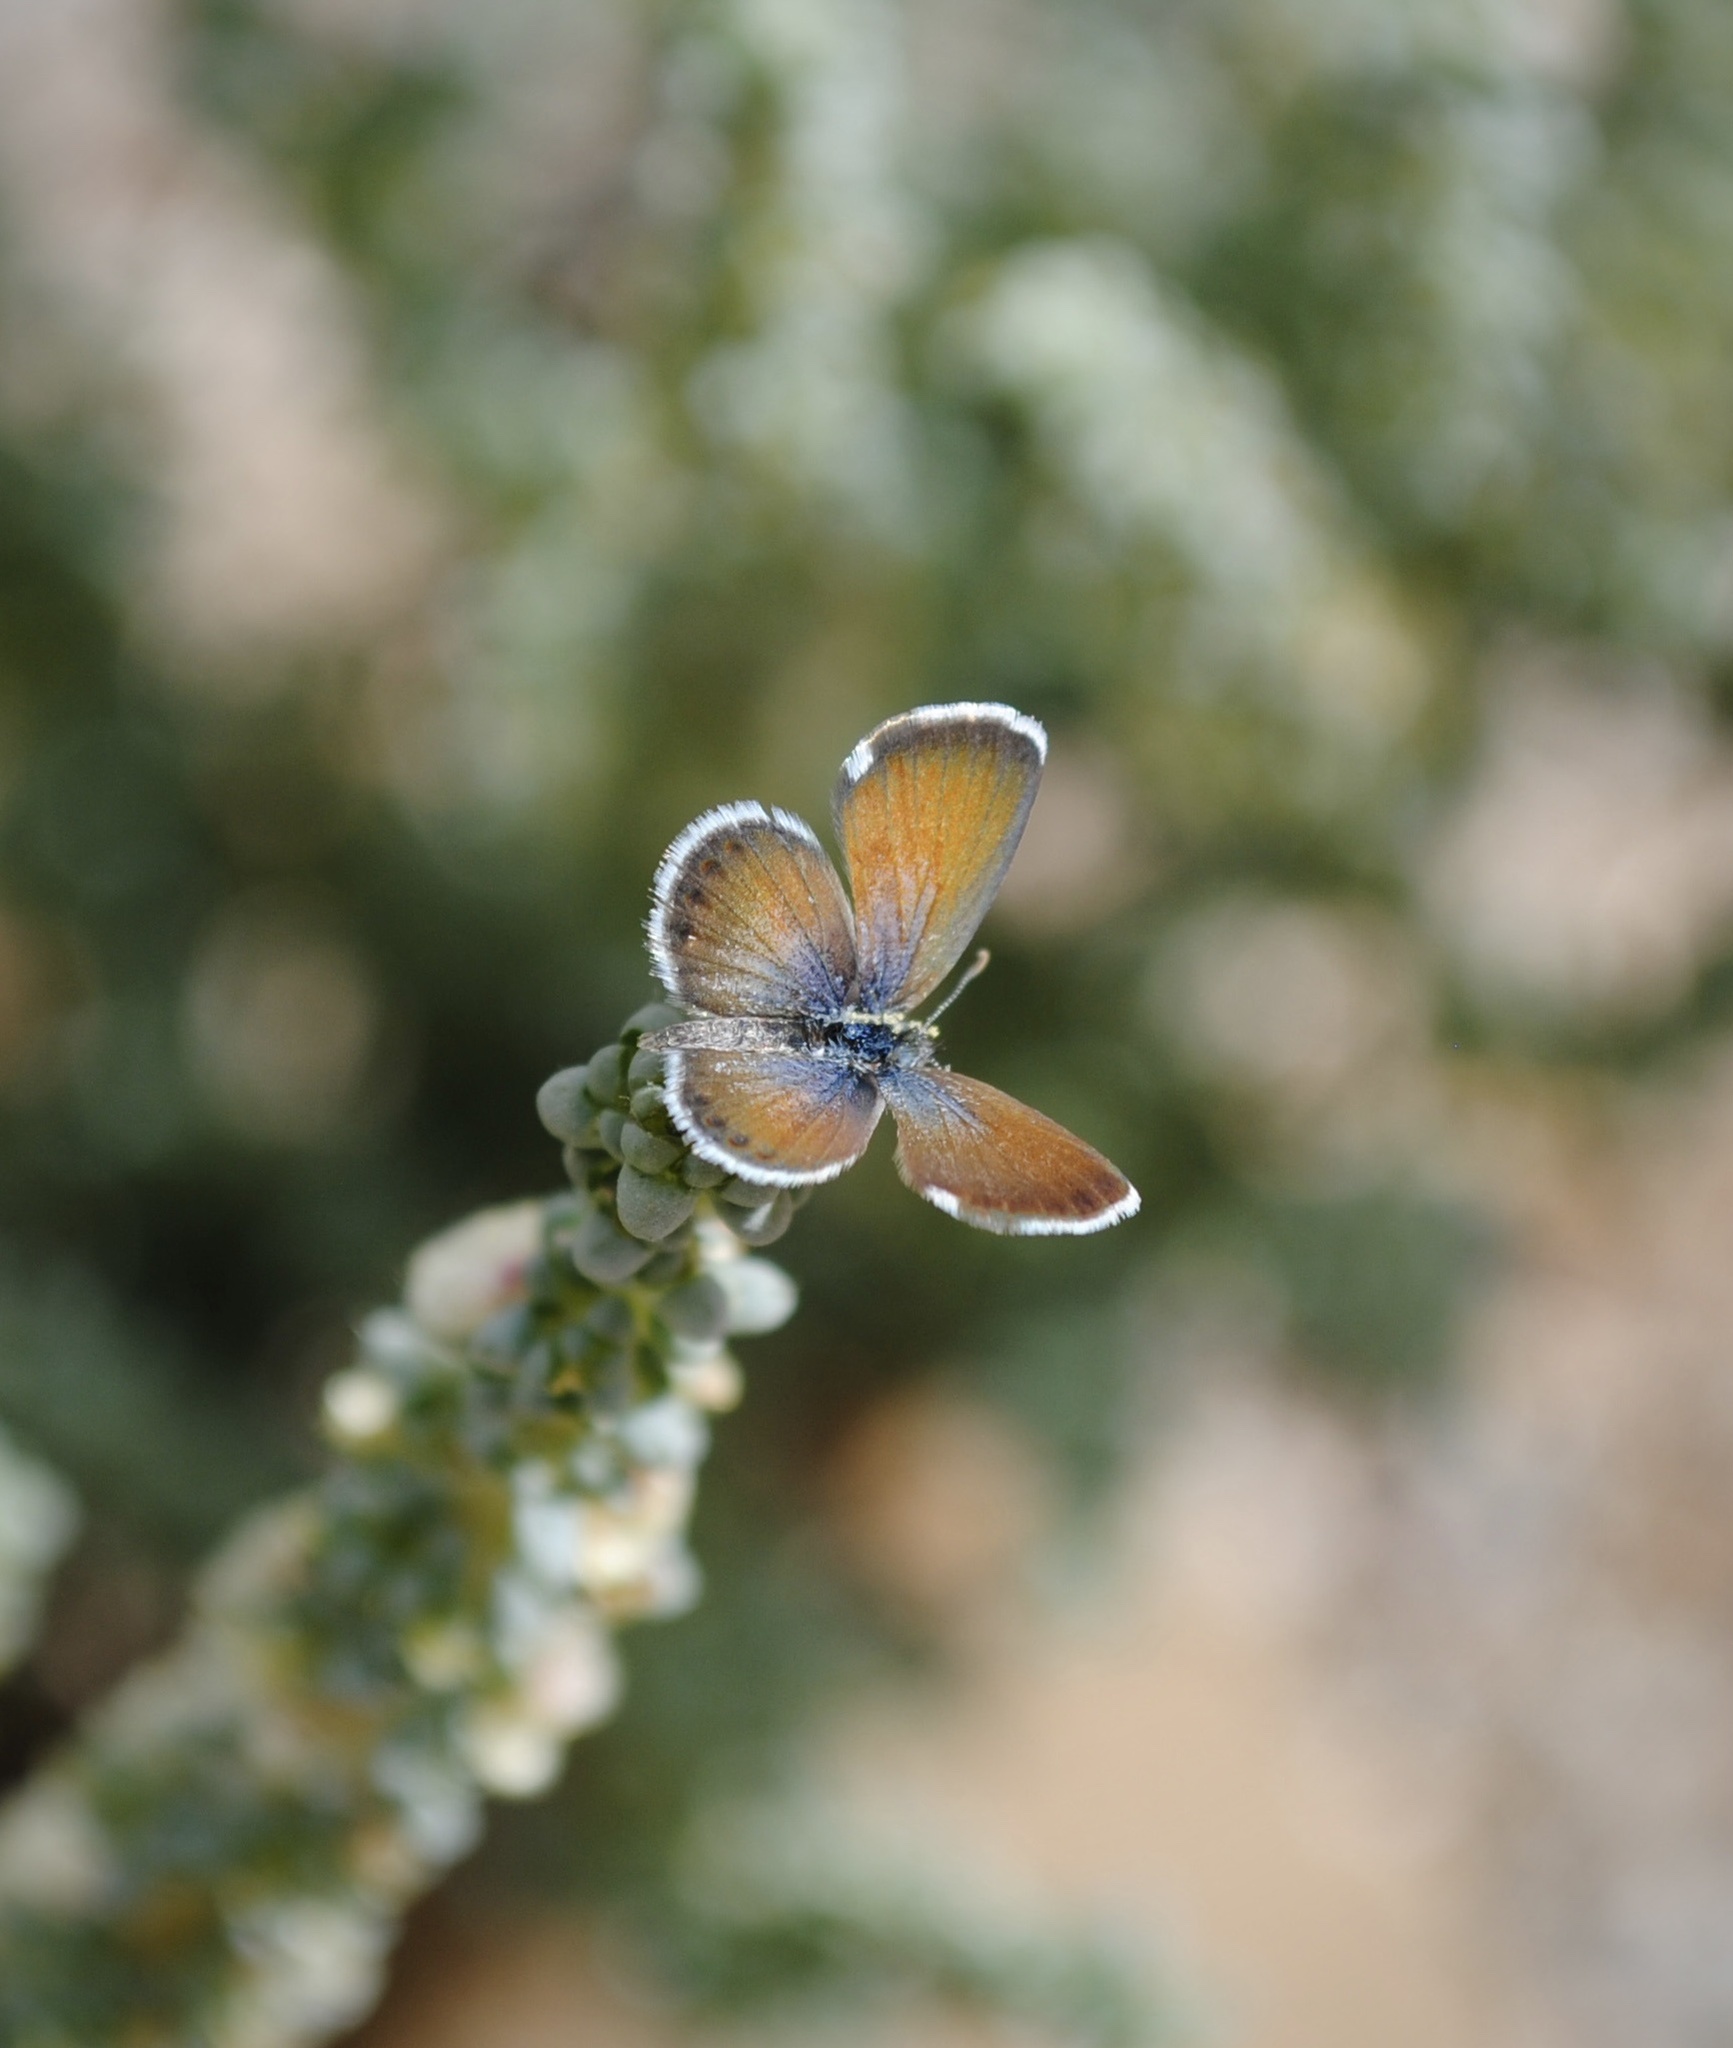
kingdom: Animalia
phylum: Arthropoda
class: Insecta
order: Lepidoptera
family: Lycaenidae
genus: Brephidium
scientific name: Brephidium exilis
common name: Pygmy blue
